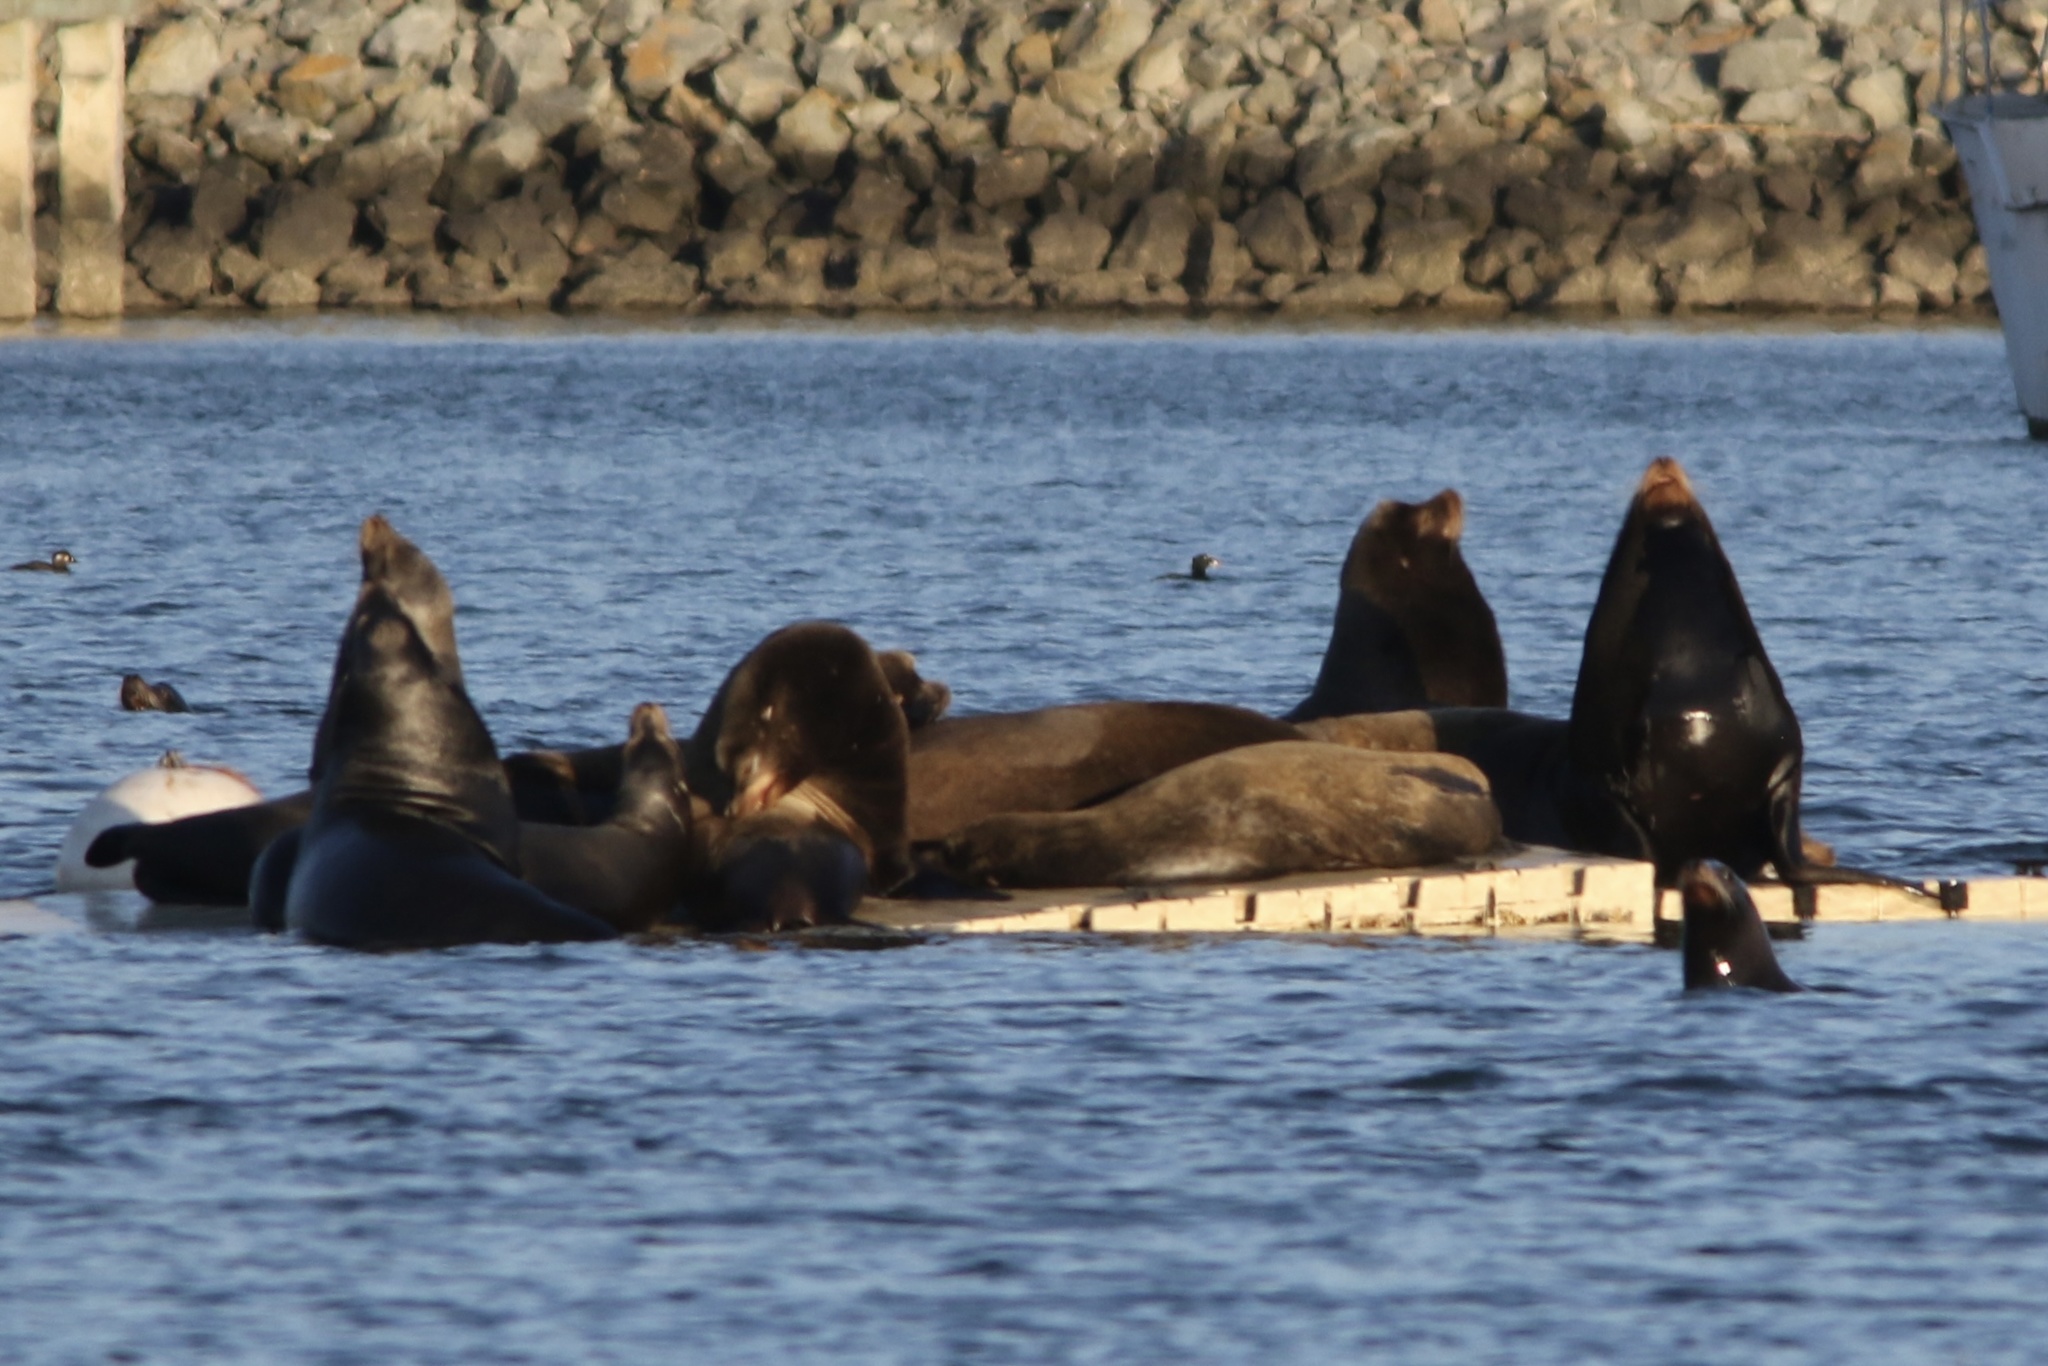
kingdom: Animalia
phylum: Chordata
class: Mammalia
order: Carnivora
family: Otariidae
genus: Zalophus
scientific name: Zalophus californianus
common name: California sea lion
